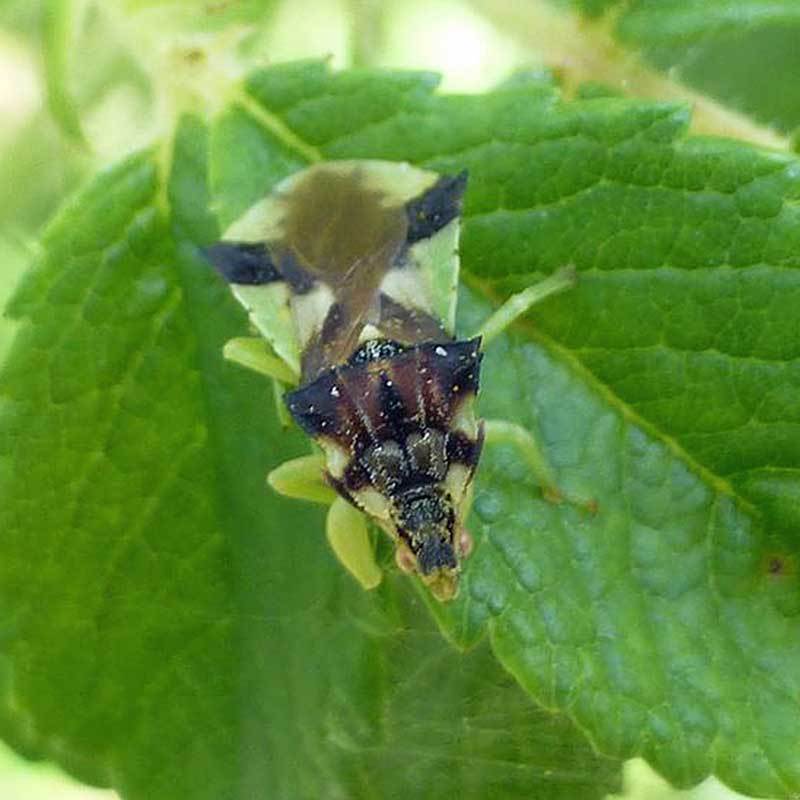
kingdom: Animalia
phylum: Arthropoda
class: Insecta
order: Hemiptera
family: Reduviidae
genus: Phymata
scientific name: Phymata americana
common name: Jagged ambush bug
